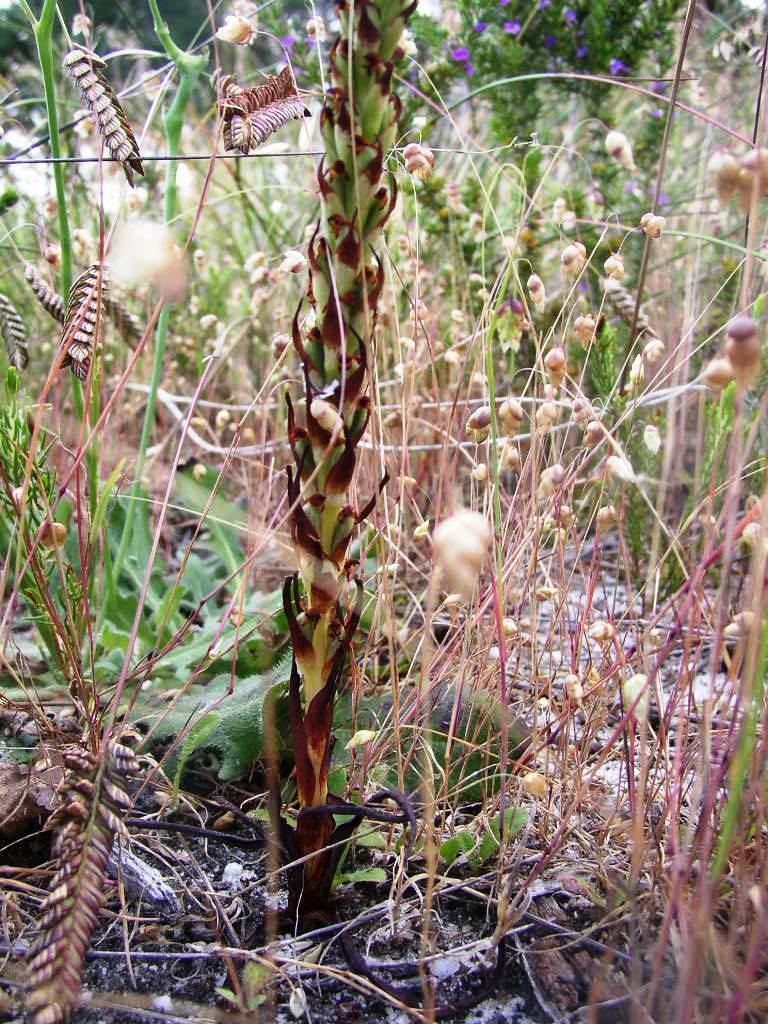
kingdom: Plantae
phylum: Tracheophyta
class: Liliopsida
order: Asparagales
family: Orchidaceae
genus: Disa
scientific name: Disa bracteata
